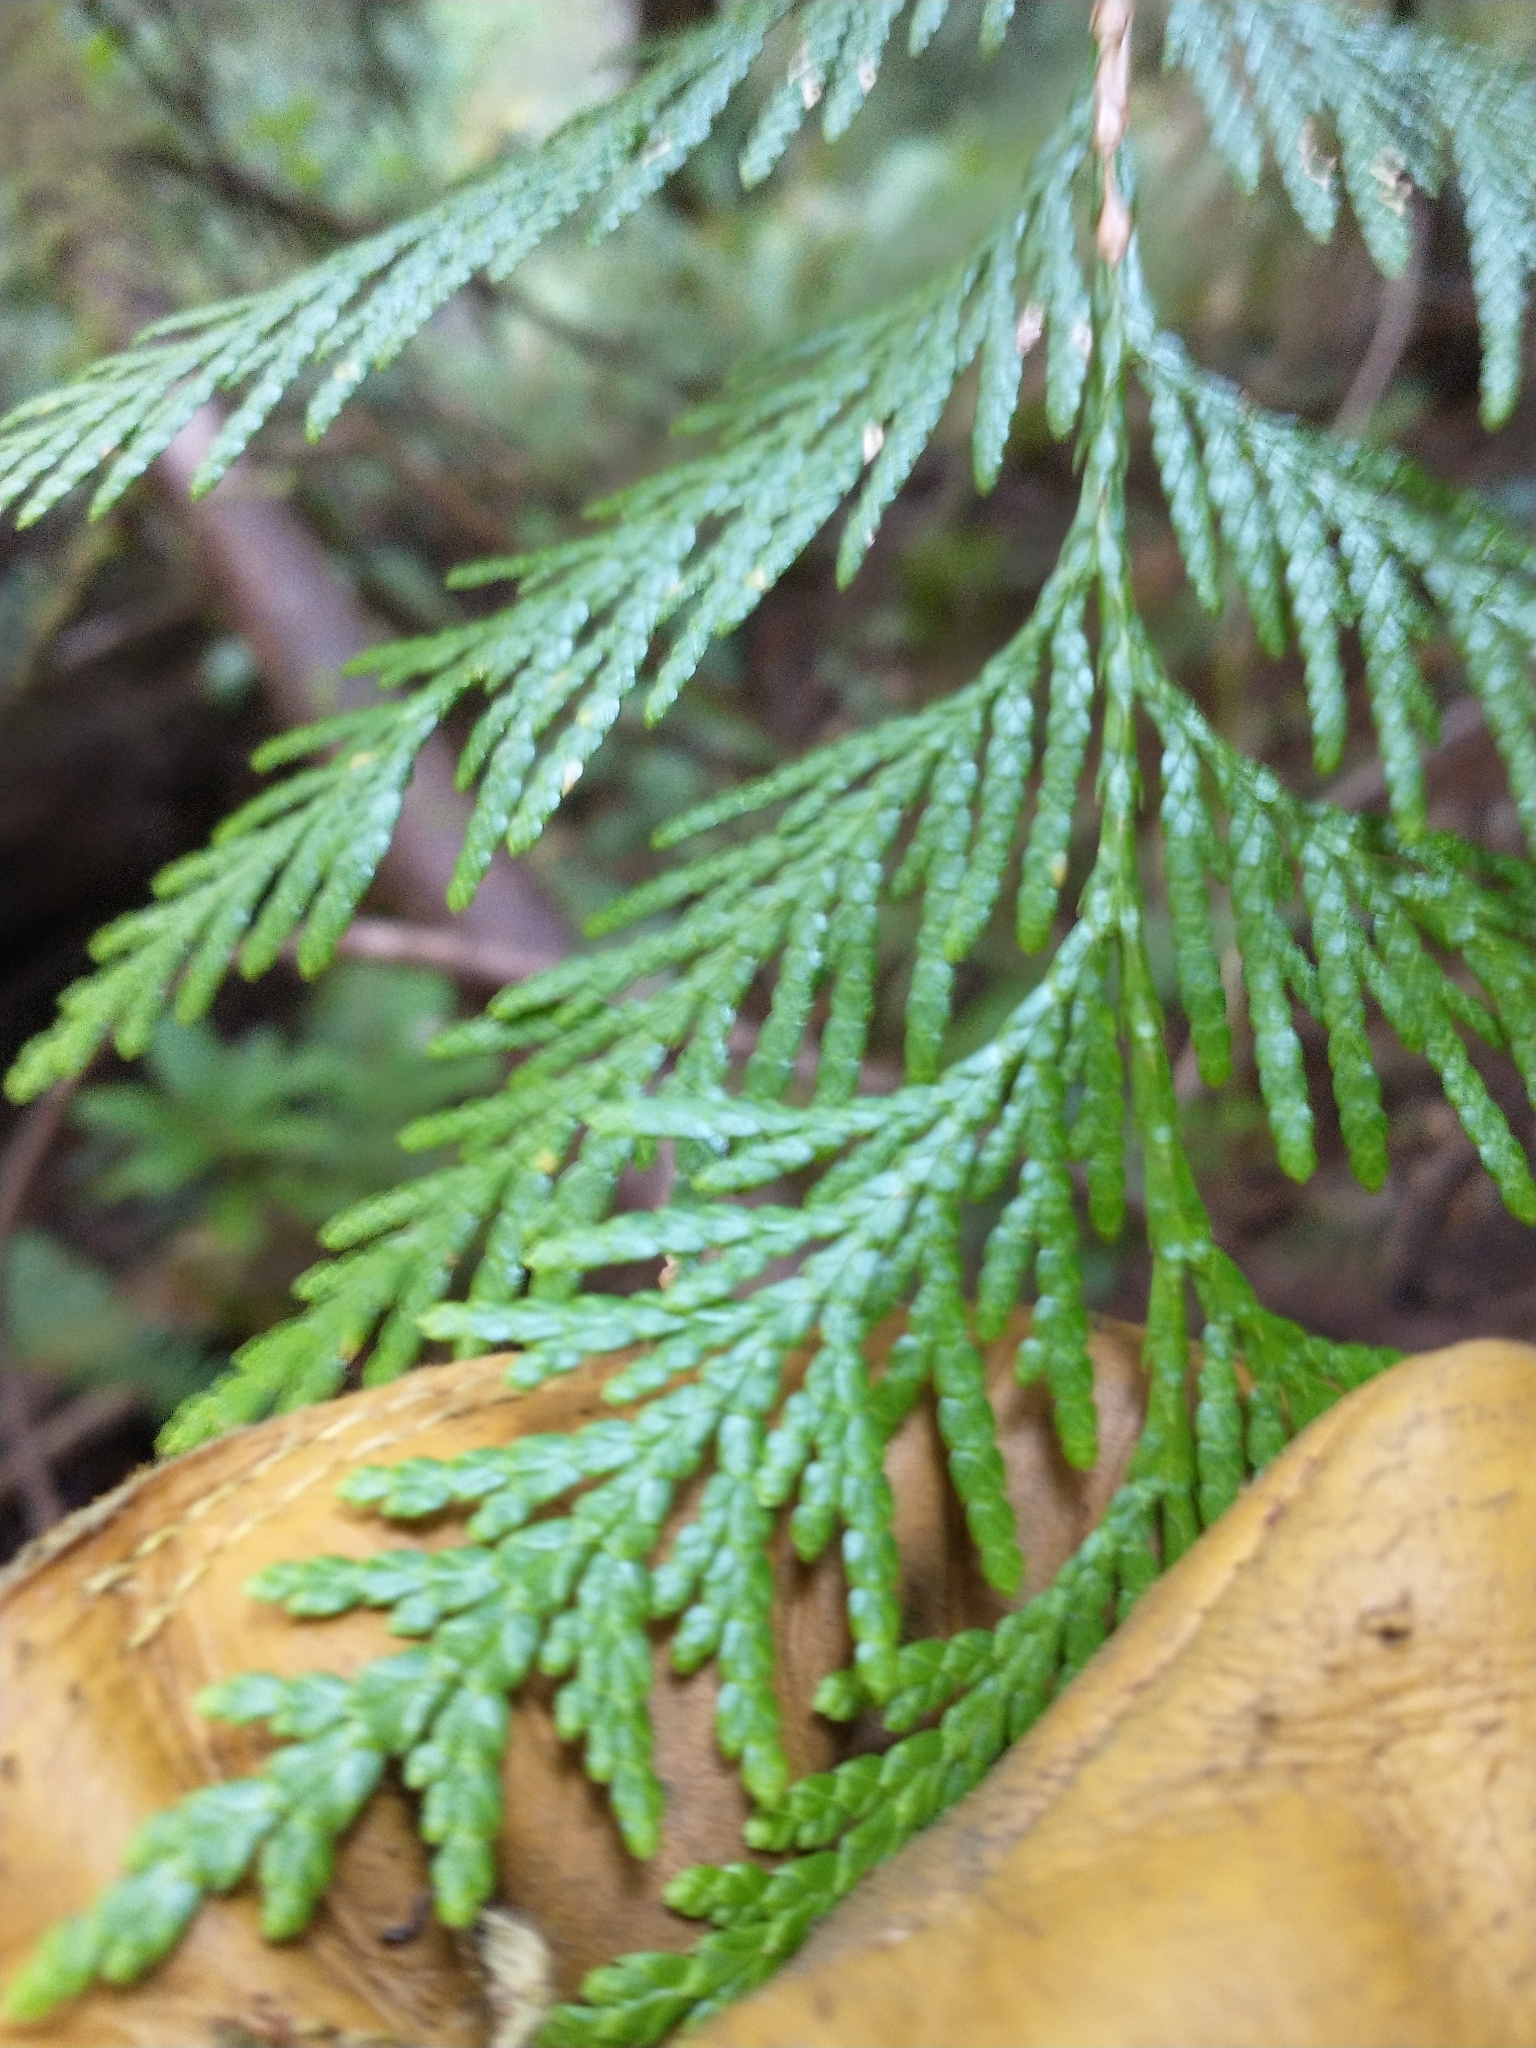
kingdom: Plantae
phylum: Tracheophyta
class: Pinopsida
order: Pinales
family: Cupressaceae
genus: Thuja
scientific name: Thuja plicata
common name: Western red-cedar
